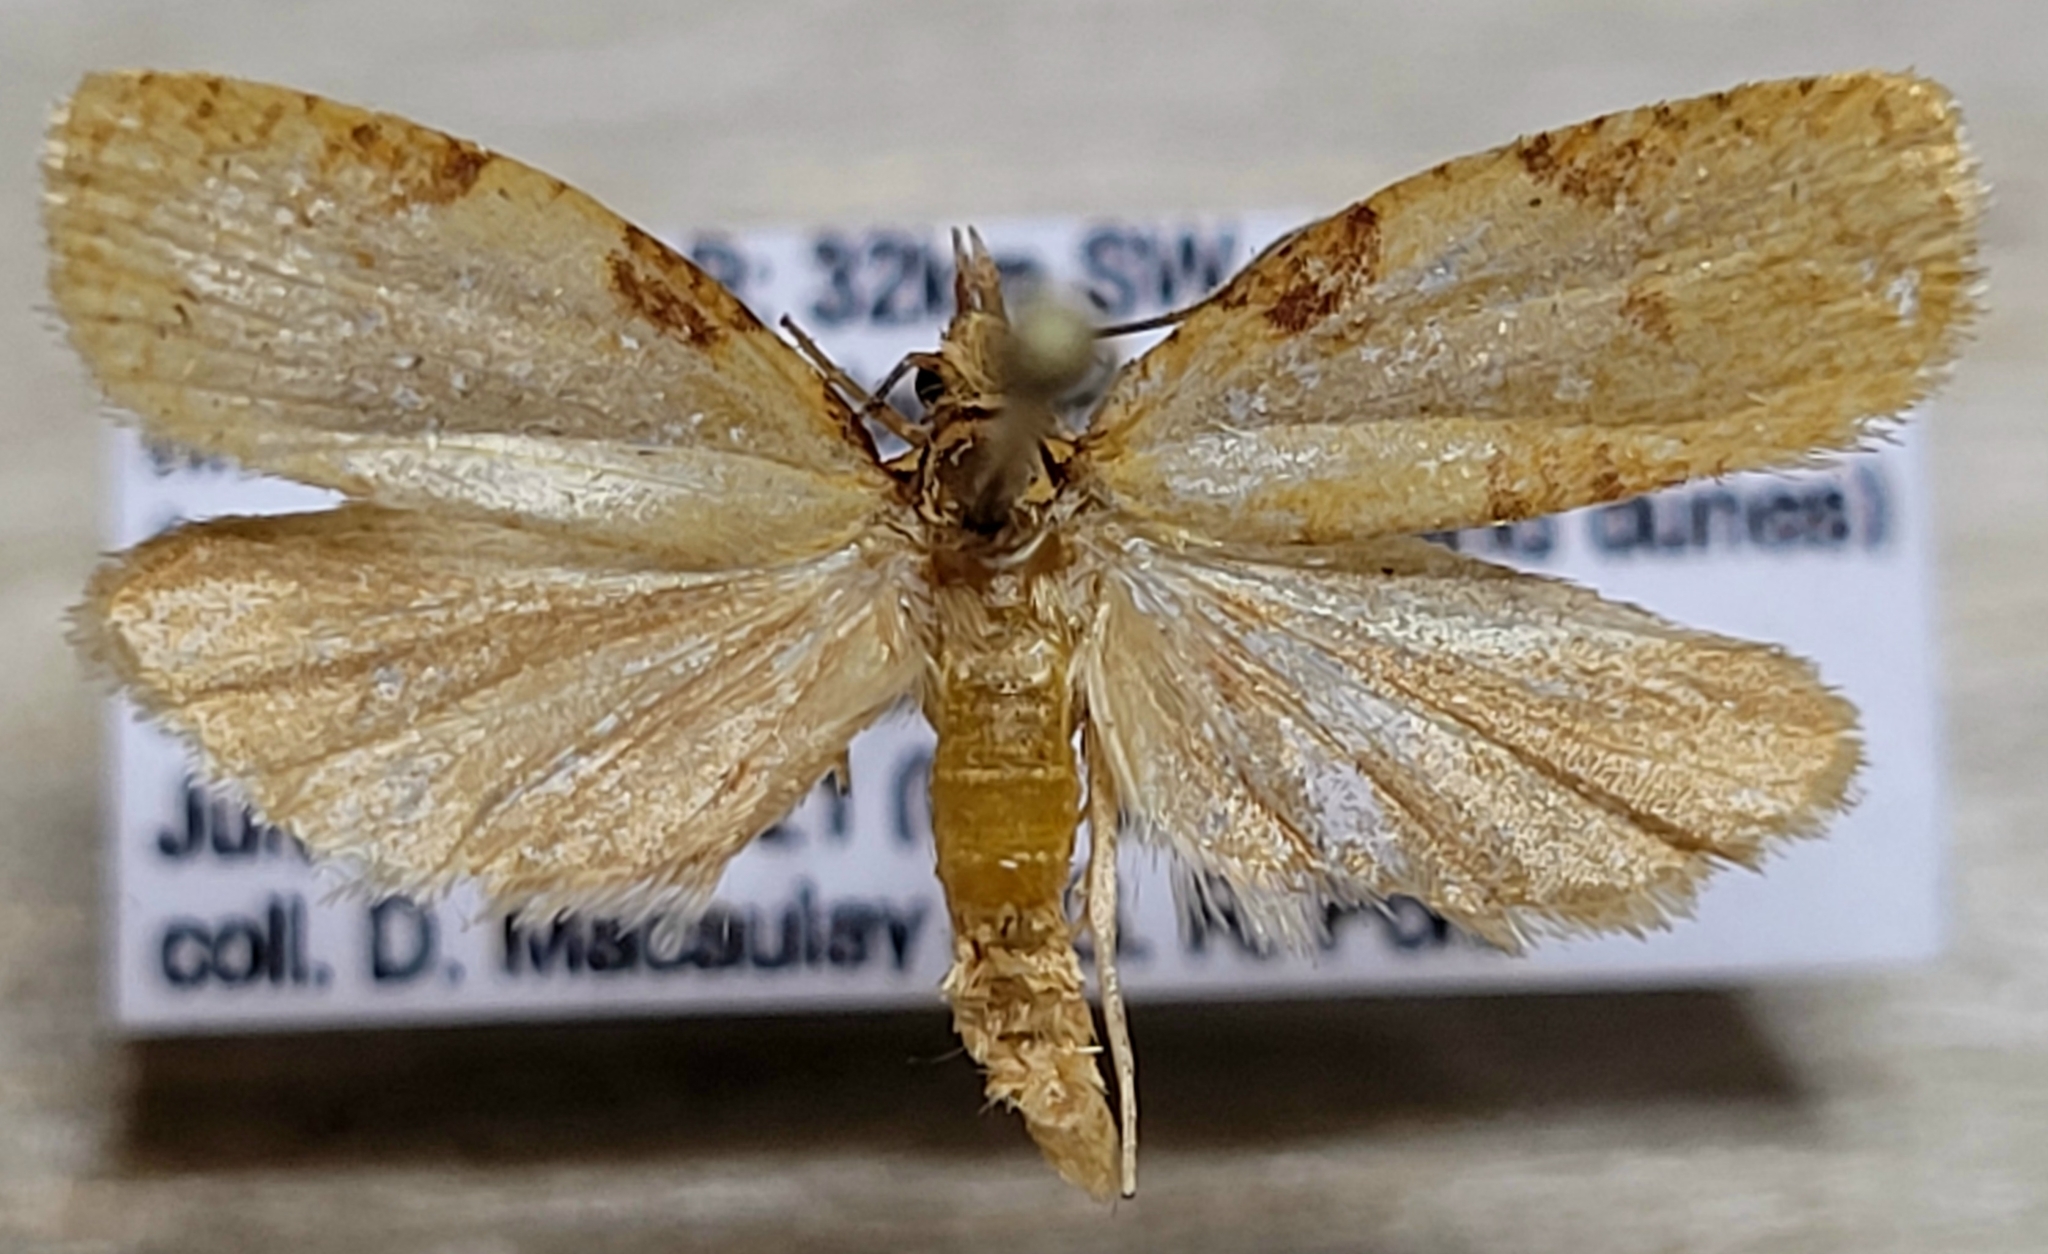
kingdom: Animalia
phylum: Arthropoda
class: Insecta
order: Lepidoptera
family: Tortricidae
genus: Archips
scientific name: Archips cerasivorana
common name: Uglynest caterpillar
